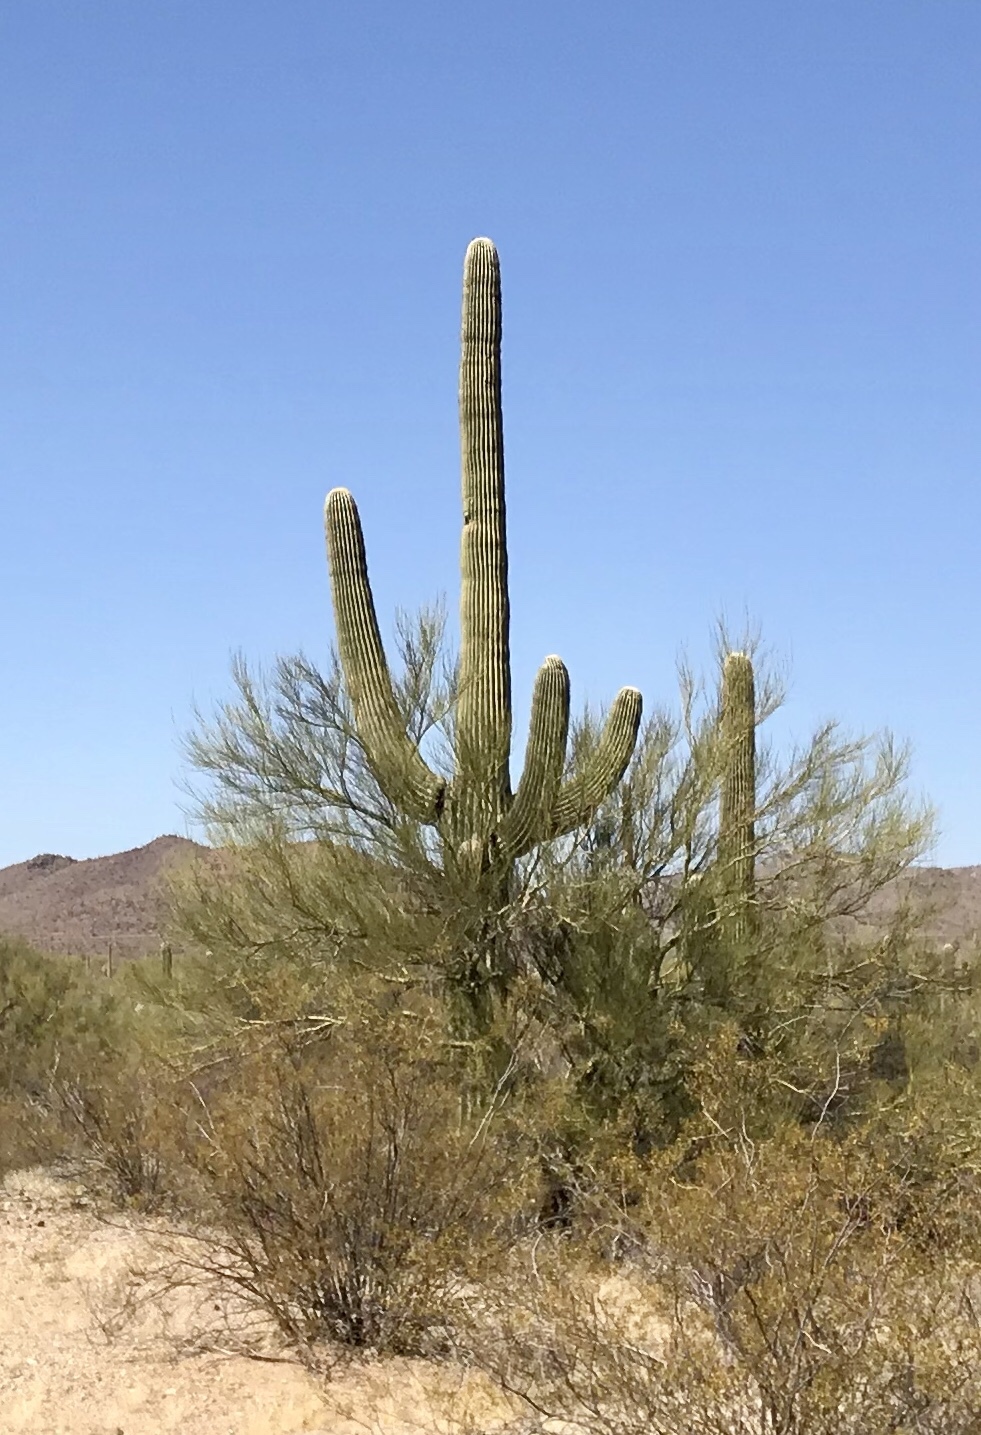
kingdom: Plantae
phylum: Tracheophyta
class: Magnoliopsida
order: Caryophyllales
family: Cactaceae
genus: Carnegiea
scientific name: Carnegiea gigantea
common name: Saguaro
